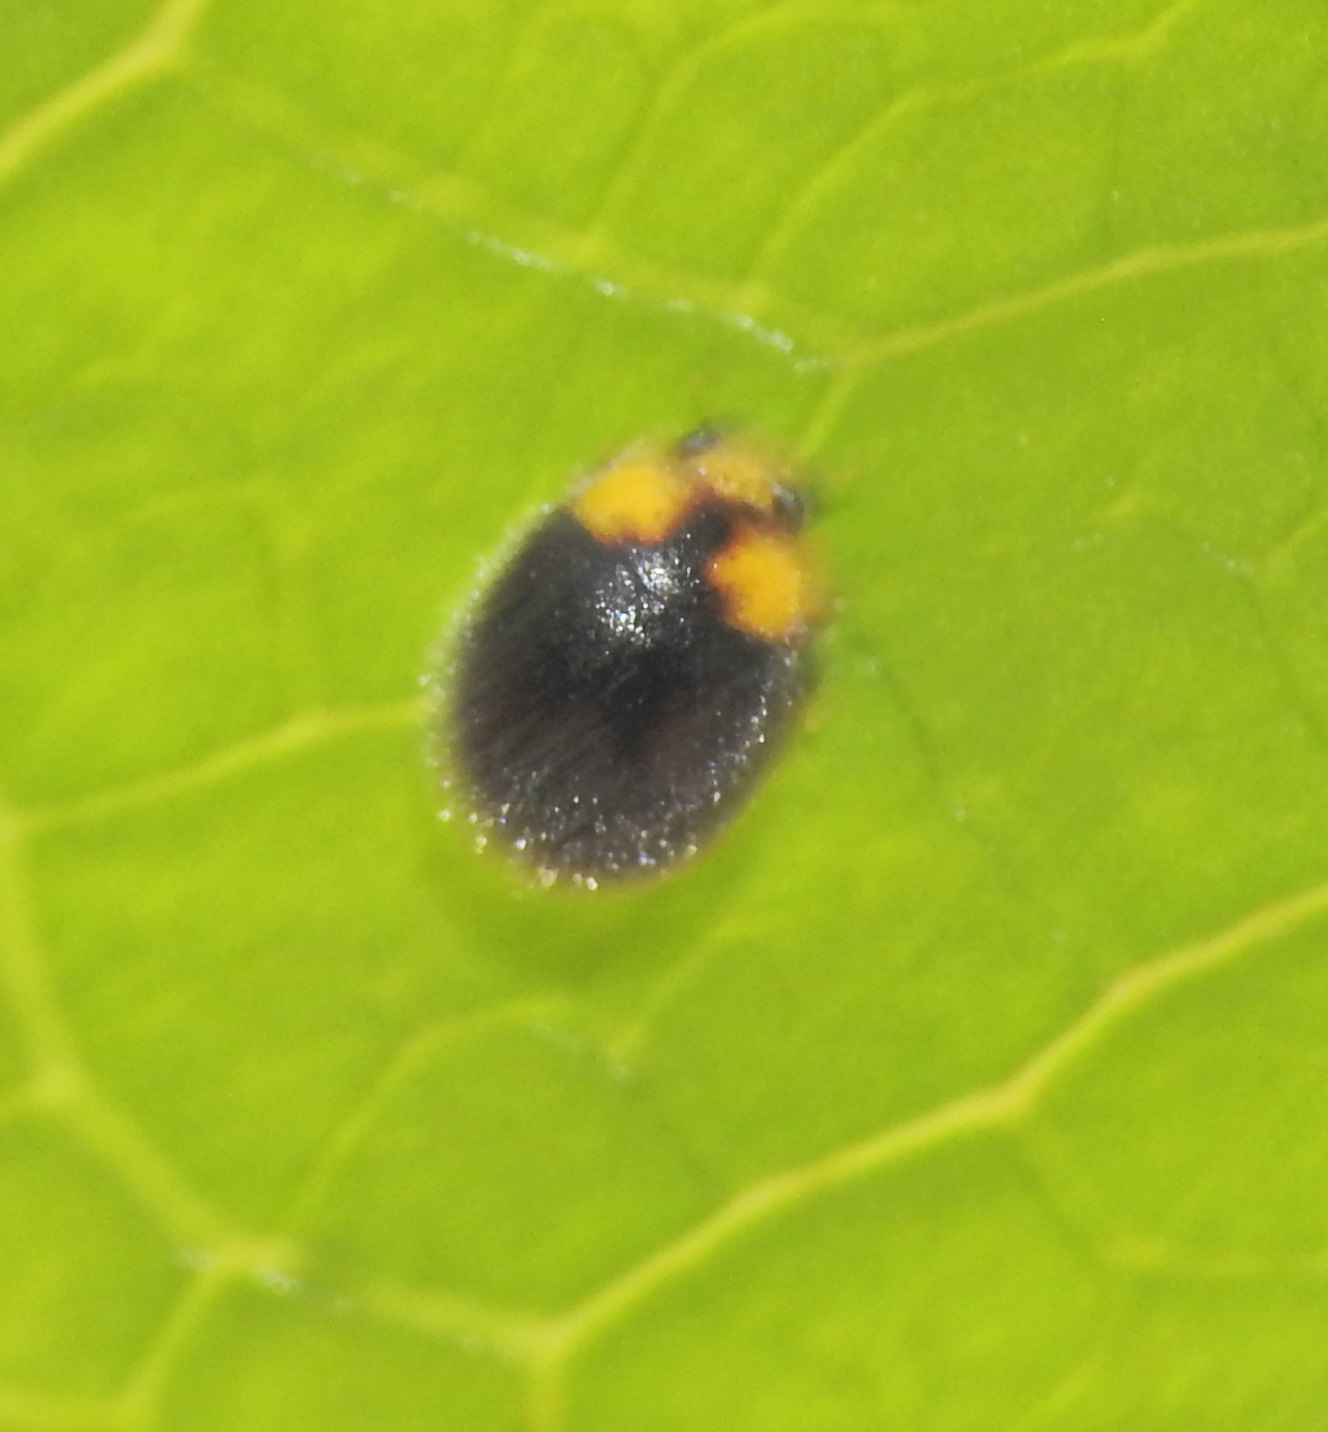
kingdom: Animalia
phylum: Arthropoda
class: Insecta
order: Coleoptera
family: Coccinellidae
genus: Scymnodes
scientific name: Scymnodes lividigaster
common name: Yellowshouldered lady beetle
